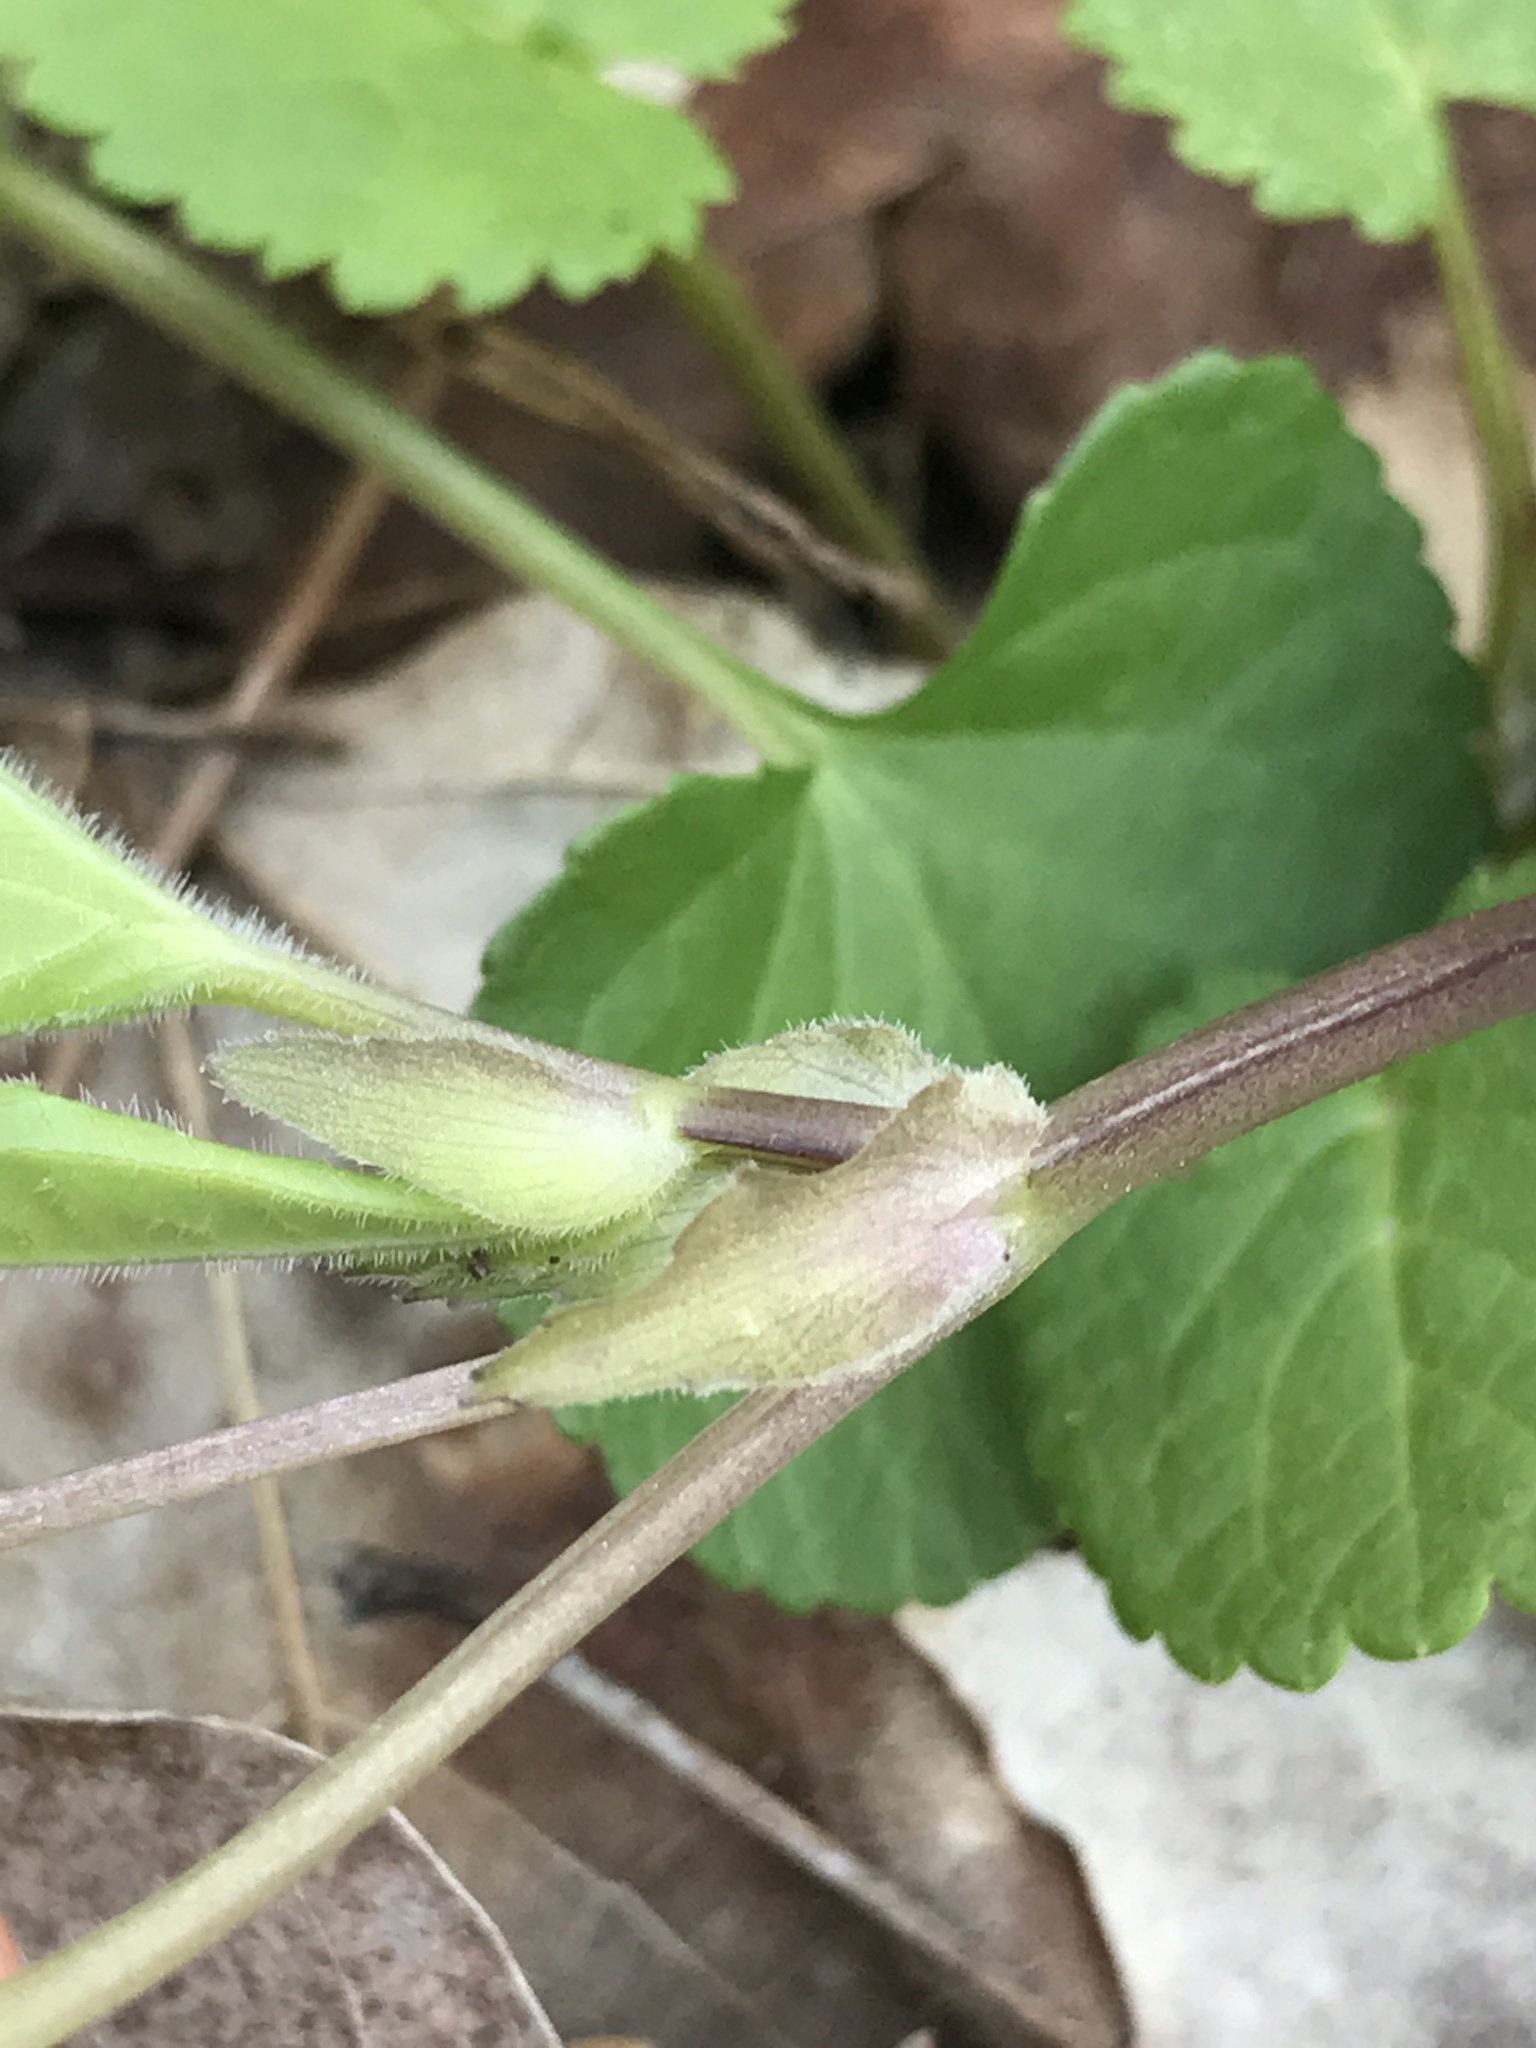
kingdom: Plantae
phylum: Tracheophyta
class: Magnoliopsida
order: Malpighiales
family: Violaceae
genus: Viola
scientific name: Viola eriocarpa
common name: Smooth yellow violet
